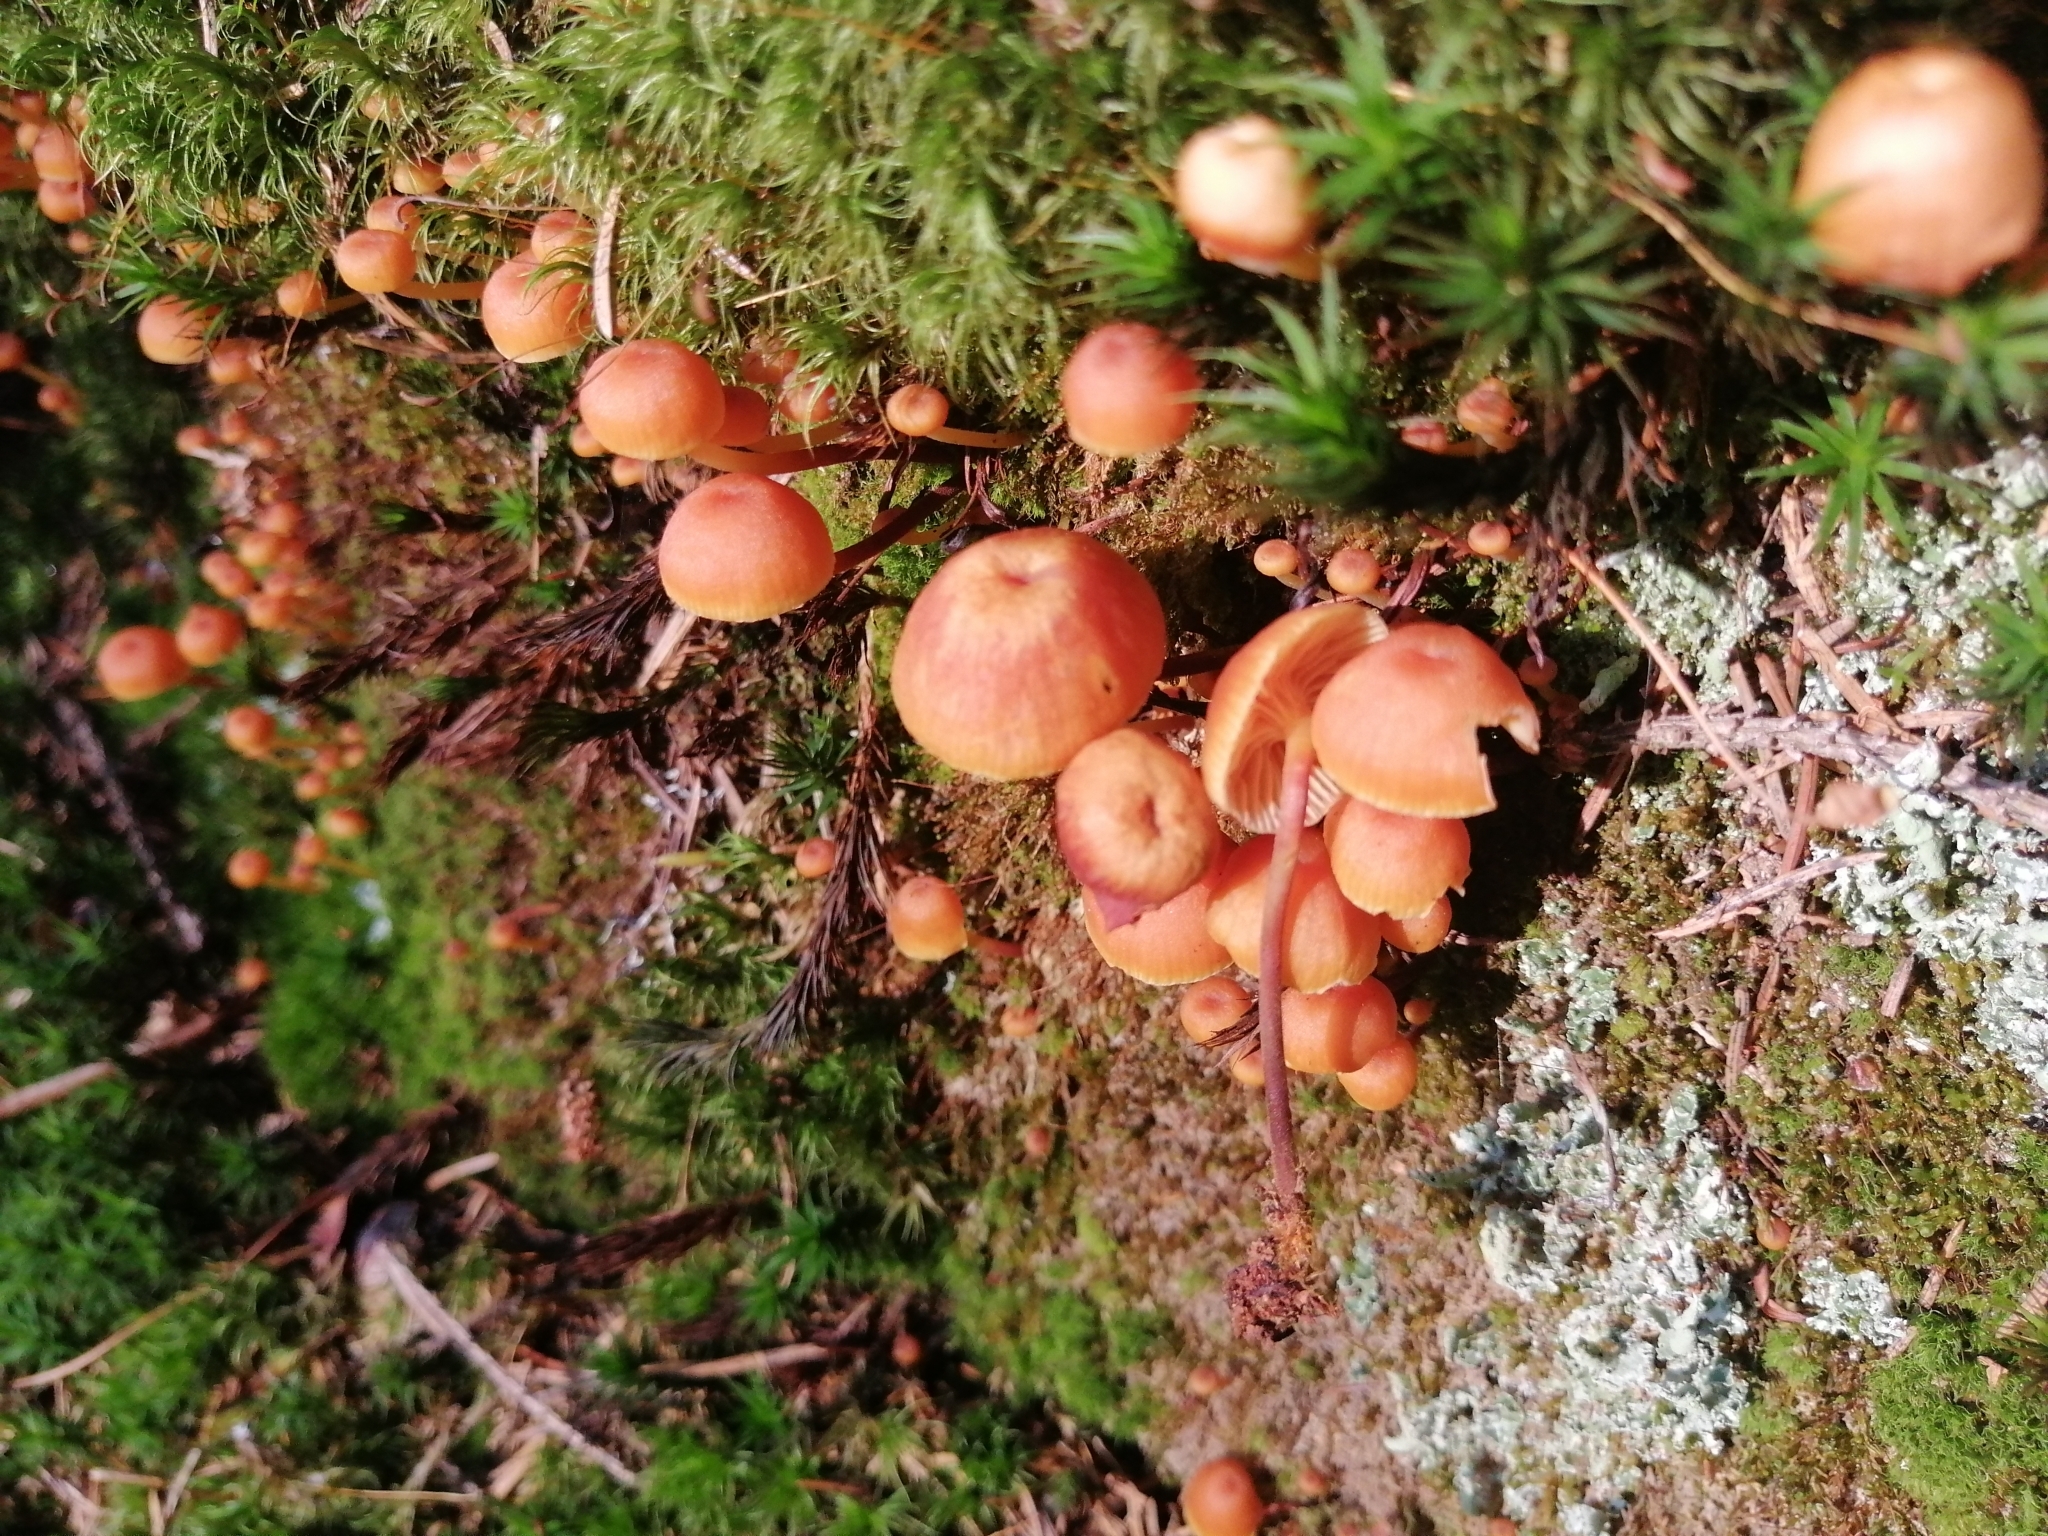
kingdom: Fungi
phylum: Basidiomycota
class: Agaricomycetes
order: Agaricales
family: Mycenaceae
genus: Xeromphalina
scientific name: Xeromphalina campanella
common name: Pinewood gingertail
